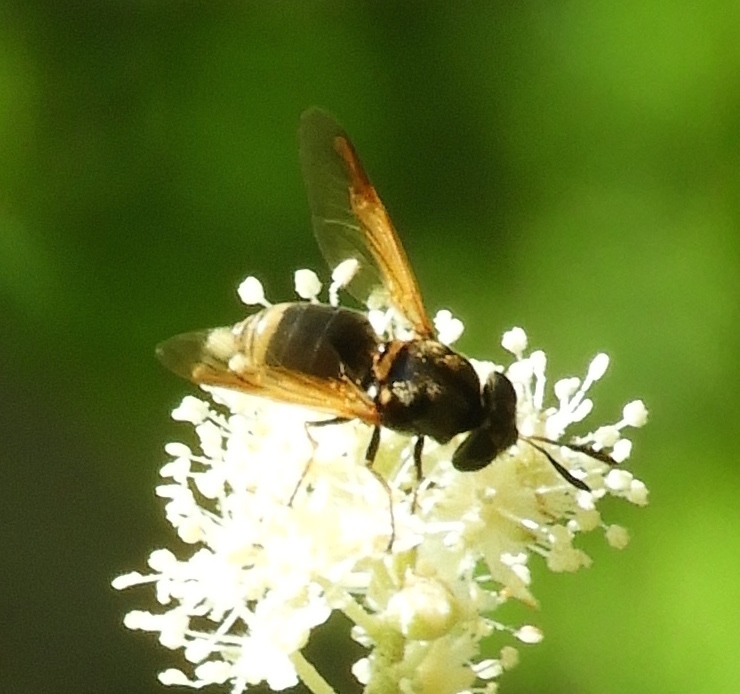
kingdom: Animalia
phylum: Arthropoda
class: Insecta
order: Diptera
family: Stratiomyidae
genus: Hoplitimyia
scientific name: Hoplitimyia mutabilis
